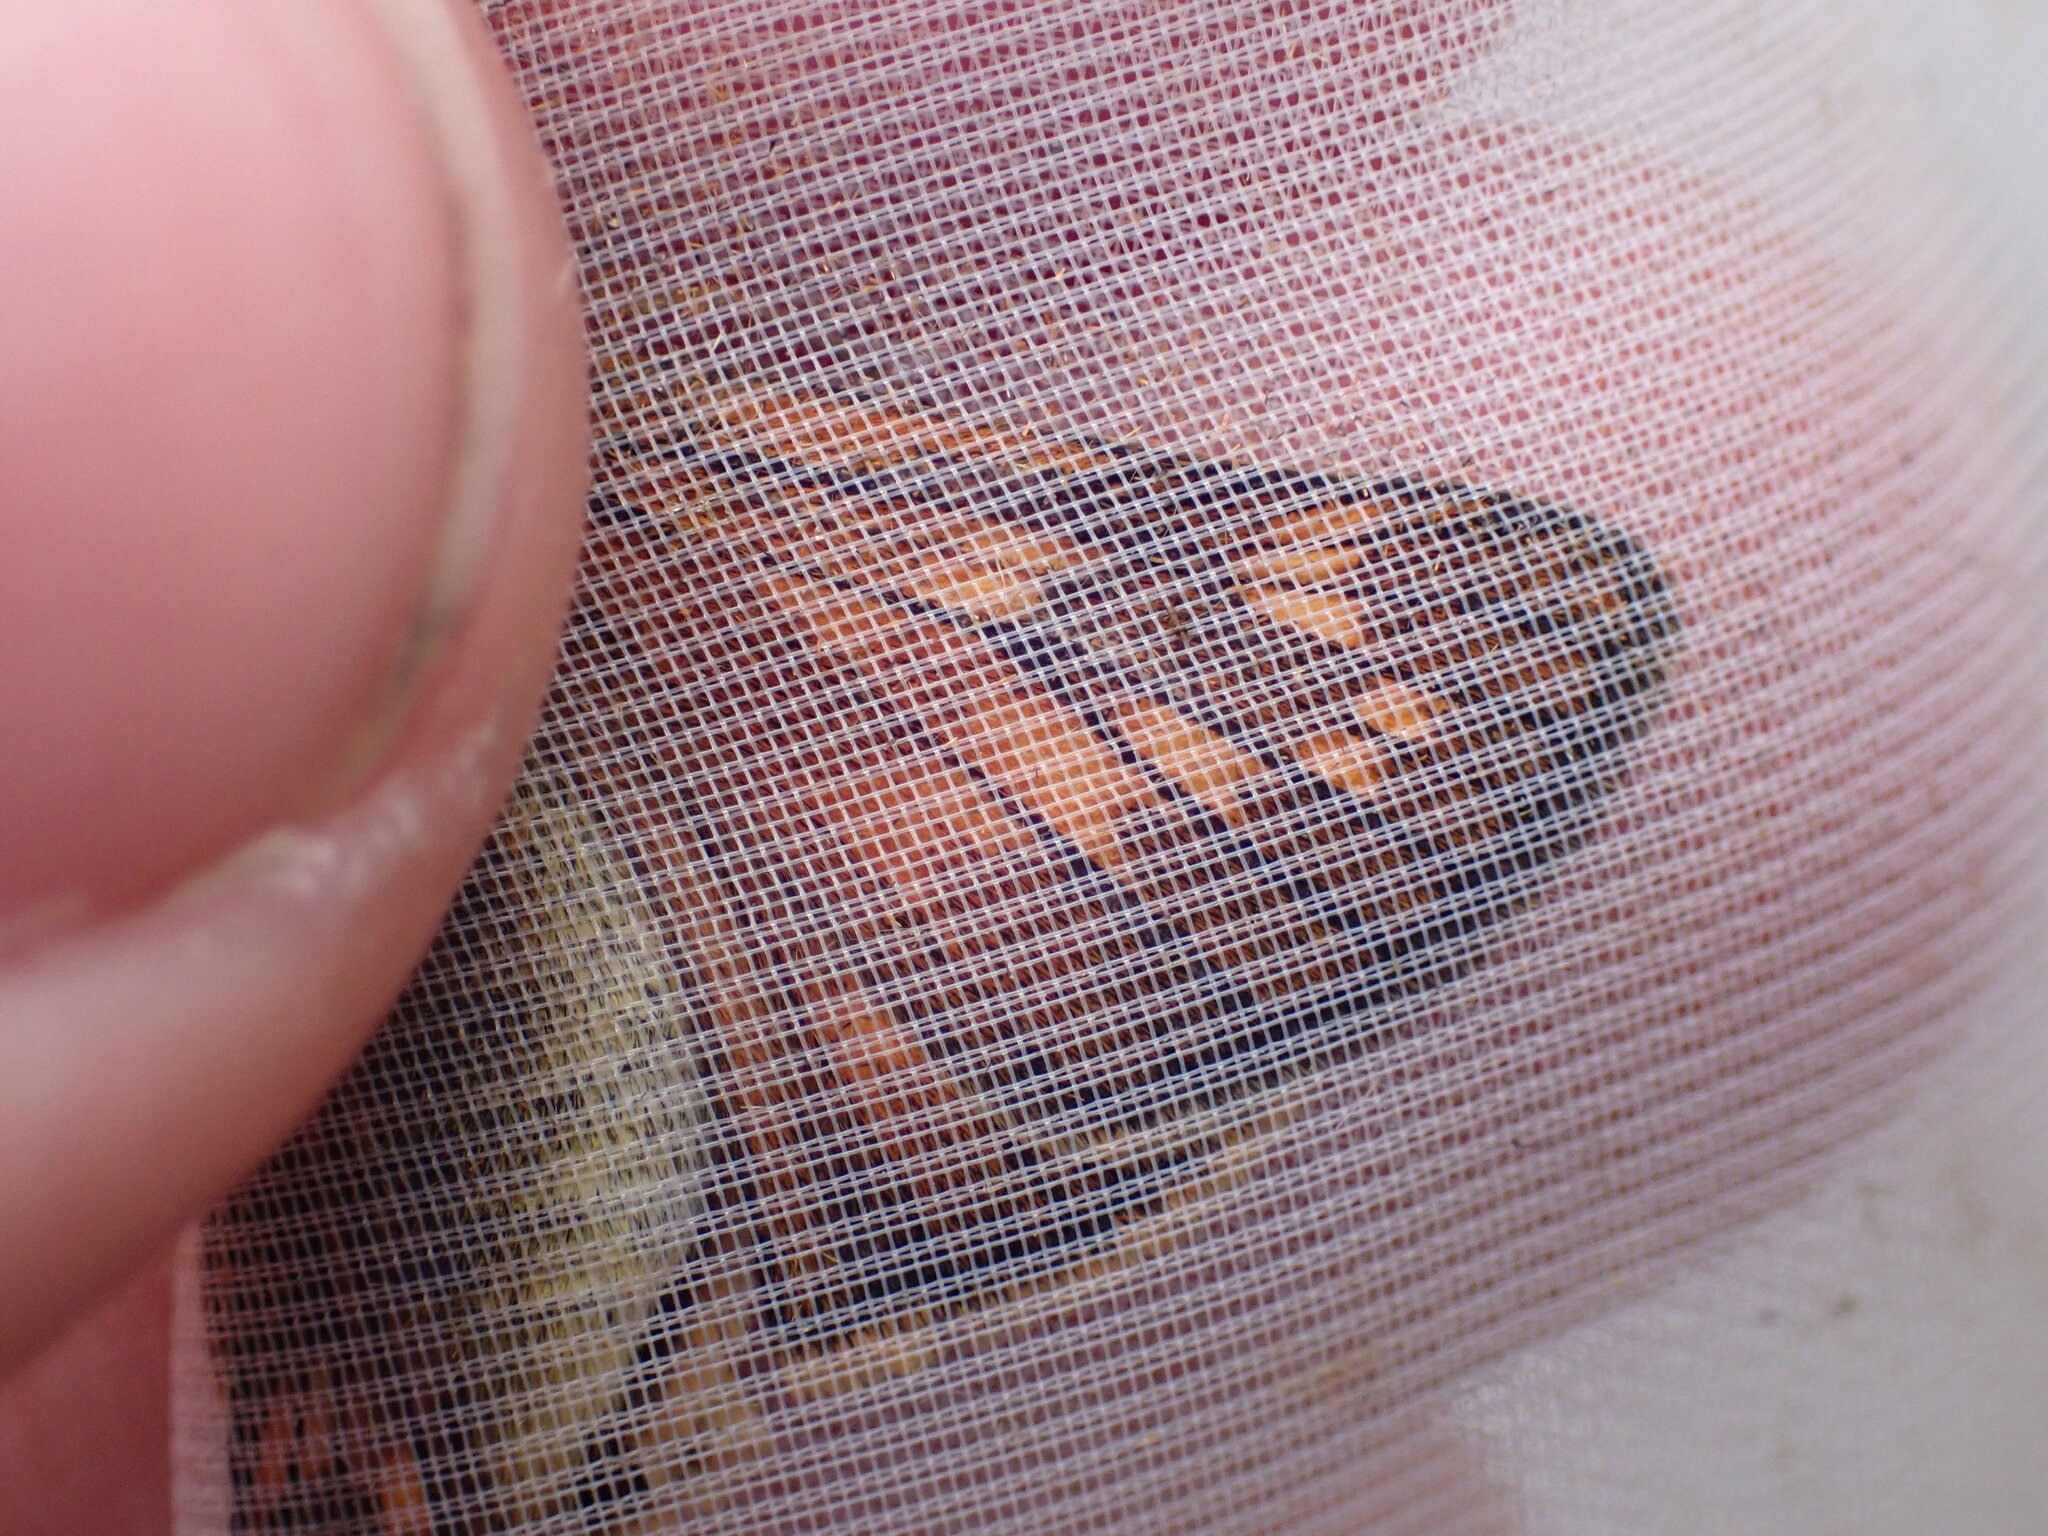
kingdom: Animalia
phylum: Arthropoda
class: Insecta
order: Lepidoptera
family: Hesperiidae
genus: Ochlodes
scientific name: Ochlodes venata
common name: Large skipper
